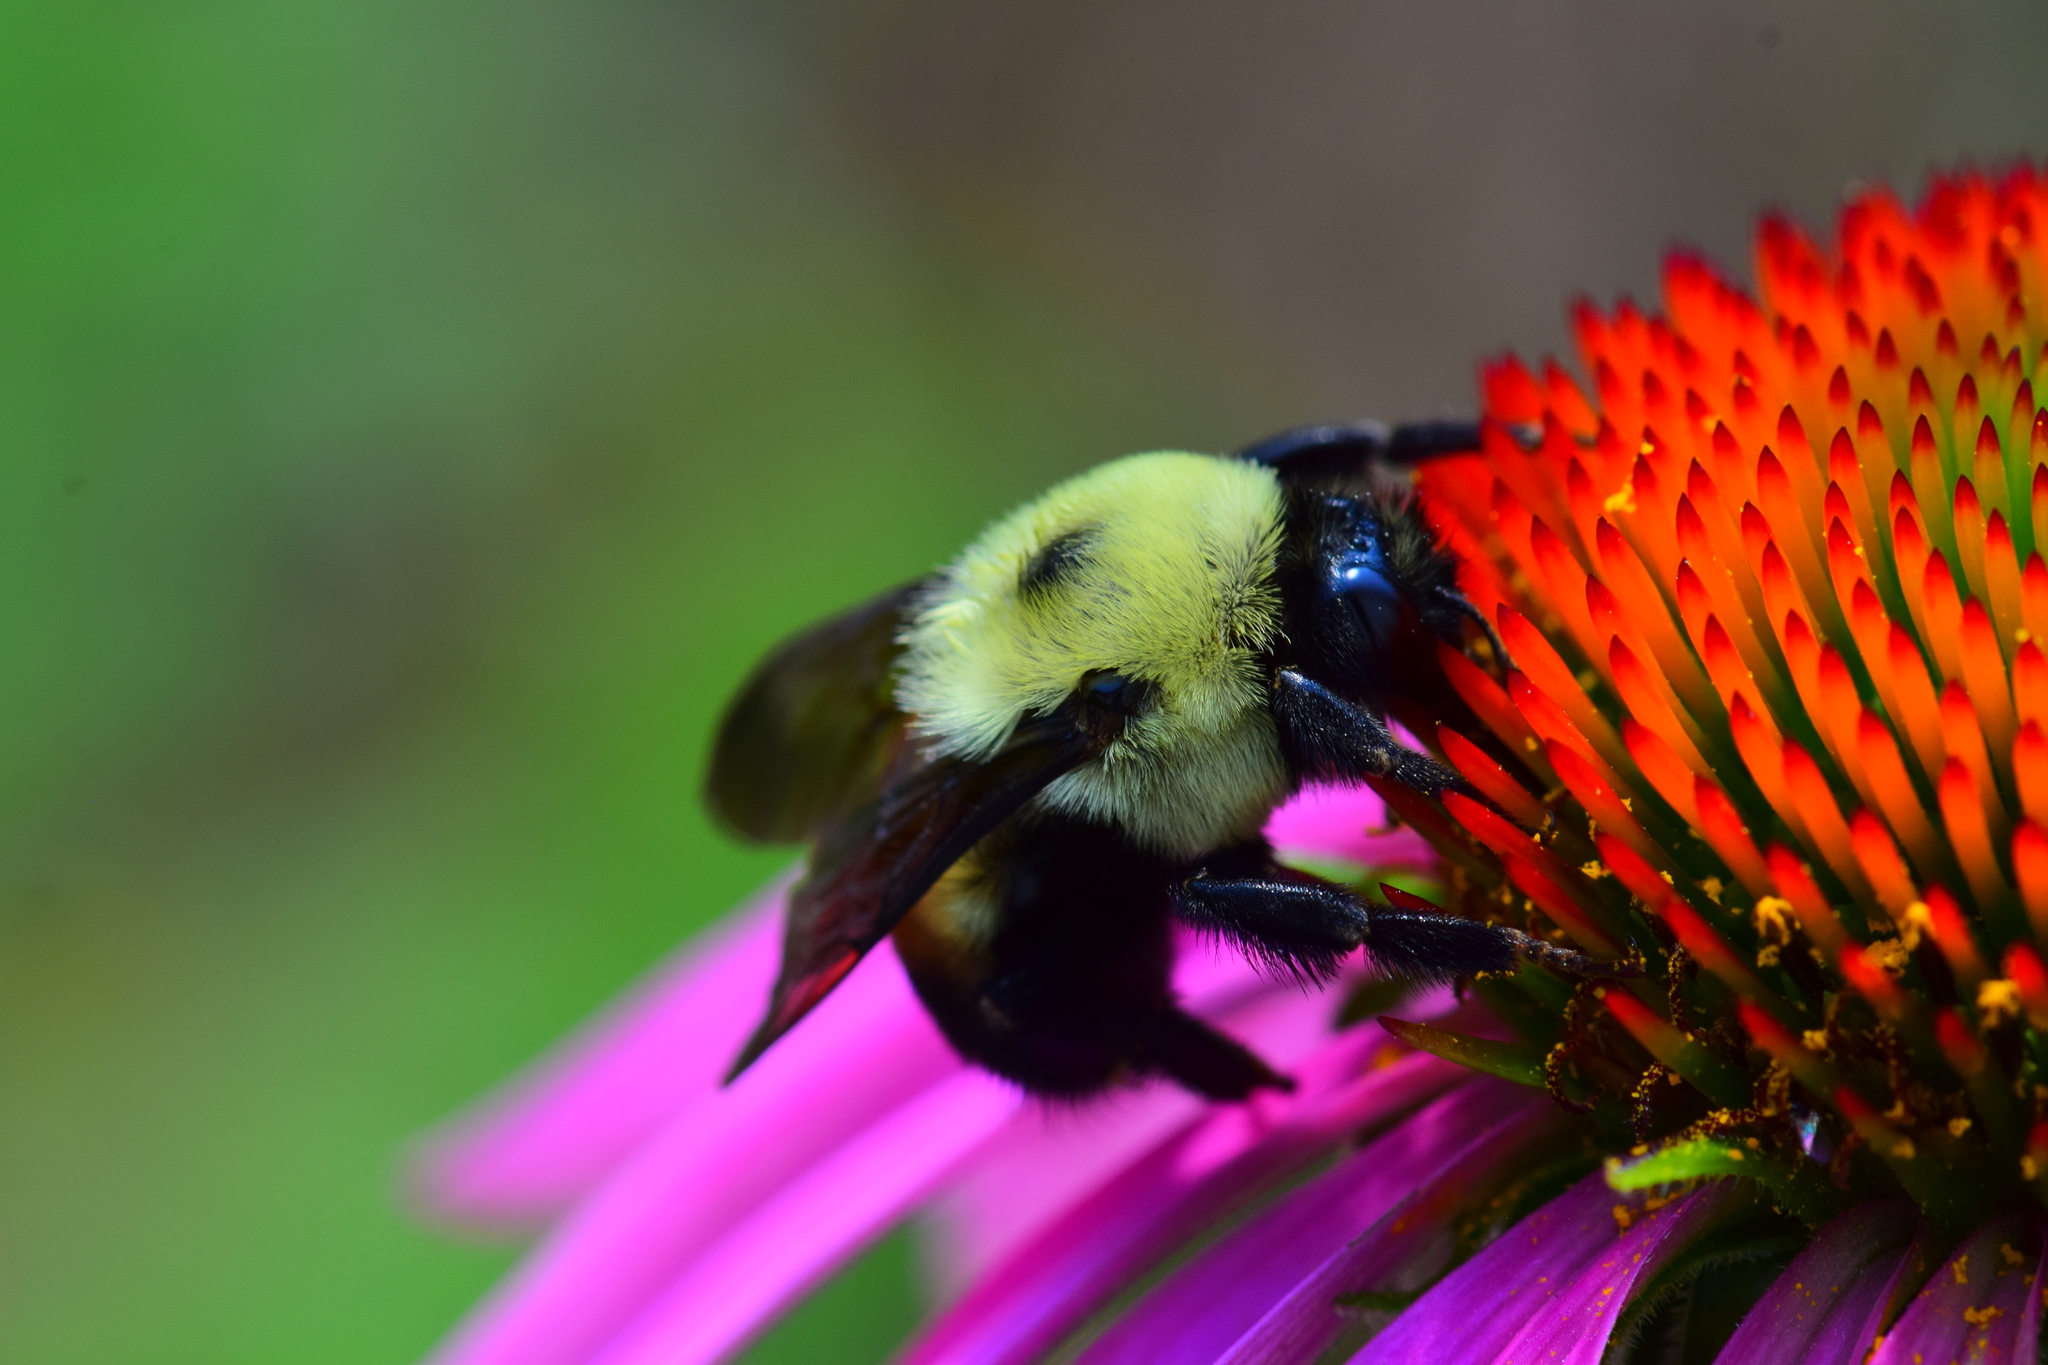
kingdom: Animalia
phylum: Arthropoda
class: Insecta
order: Hymenoptera
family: Apidae
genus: Bombus
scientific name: Bombus griseocollis
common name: Brown-belted bumble bee
